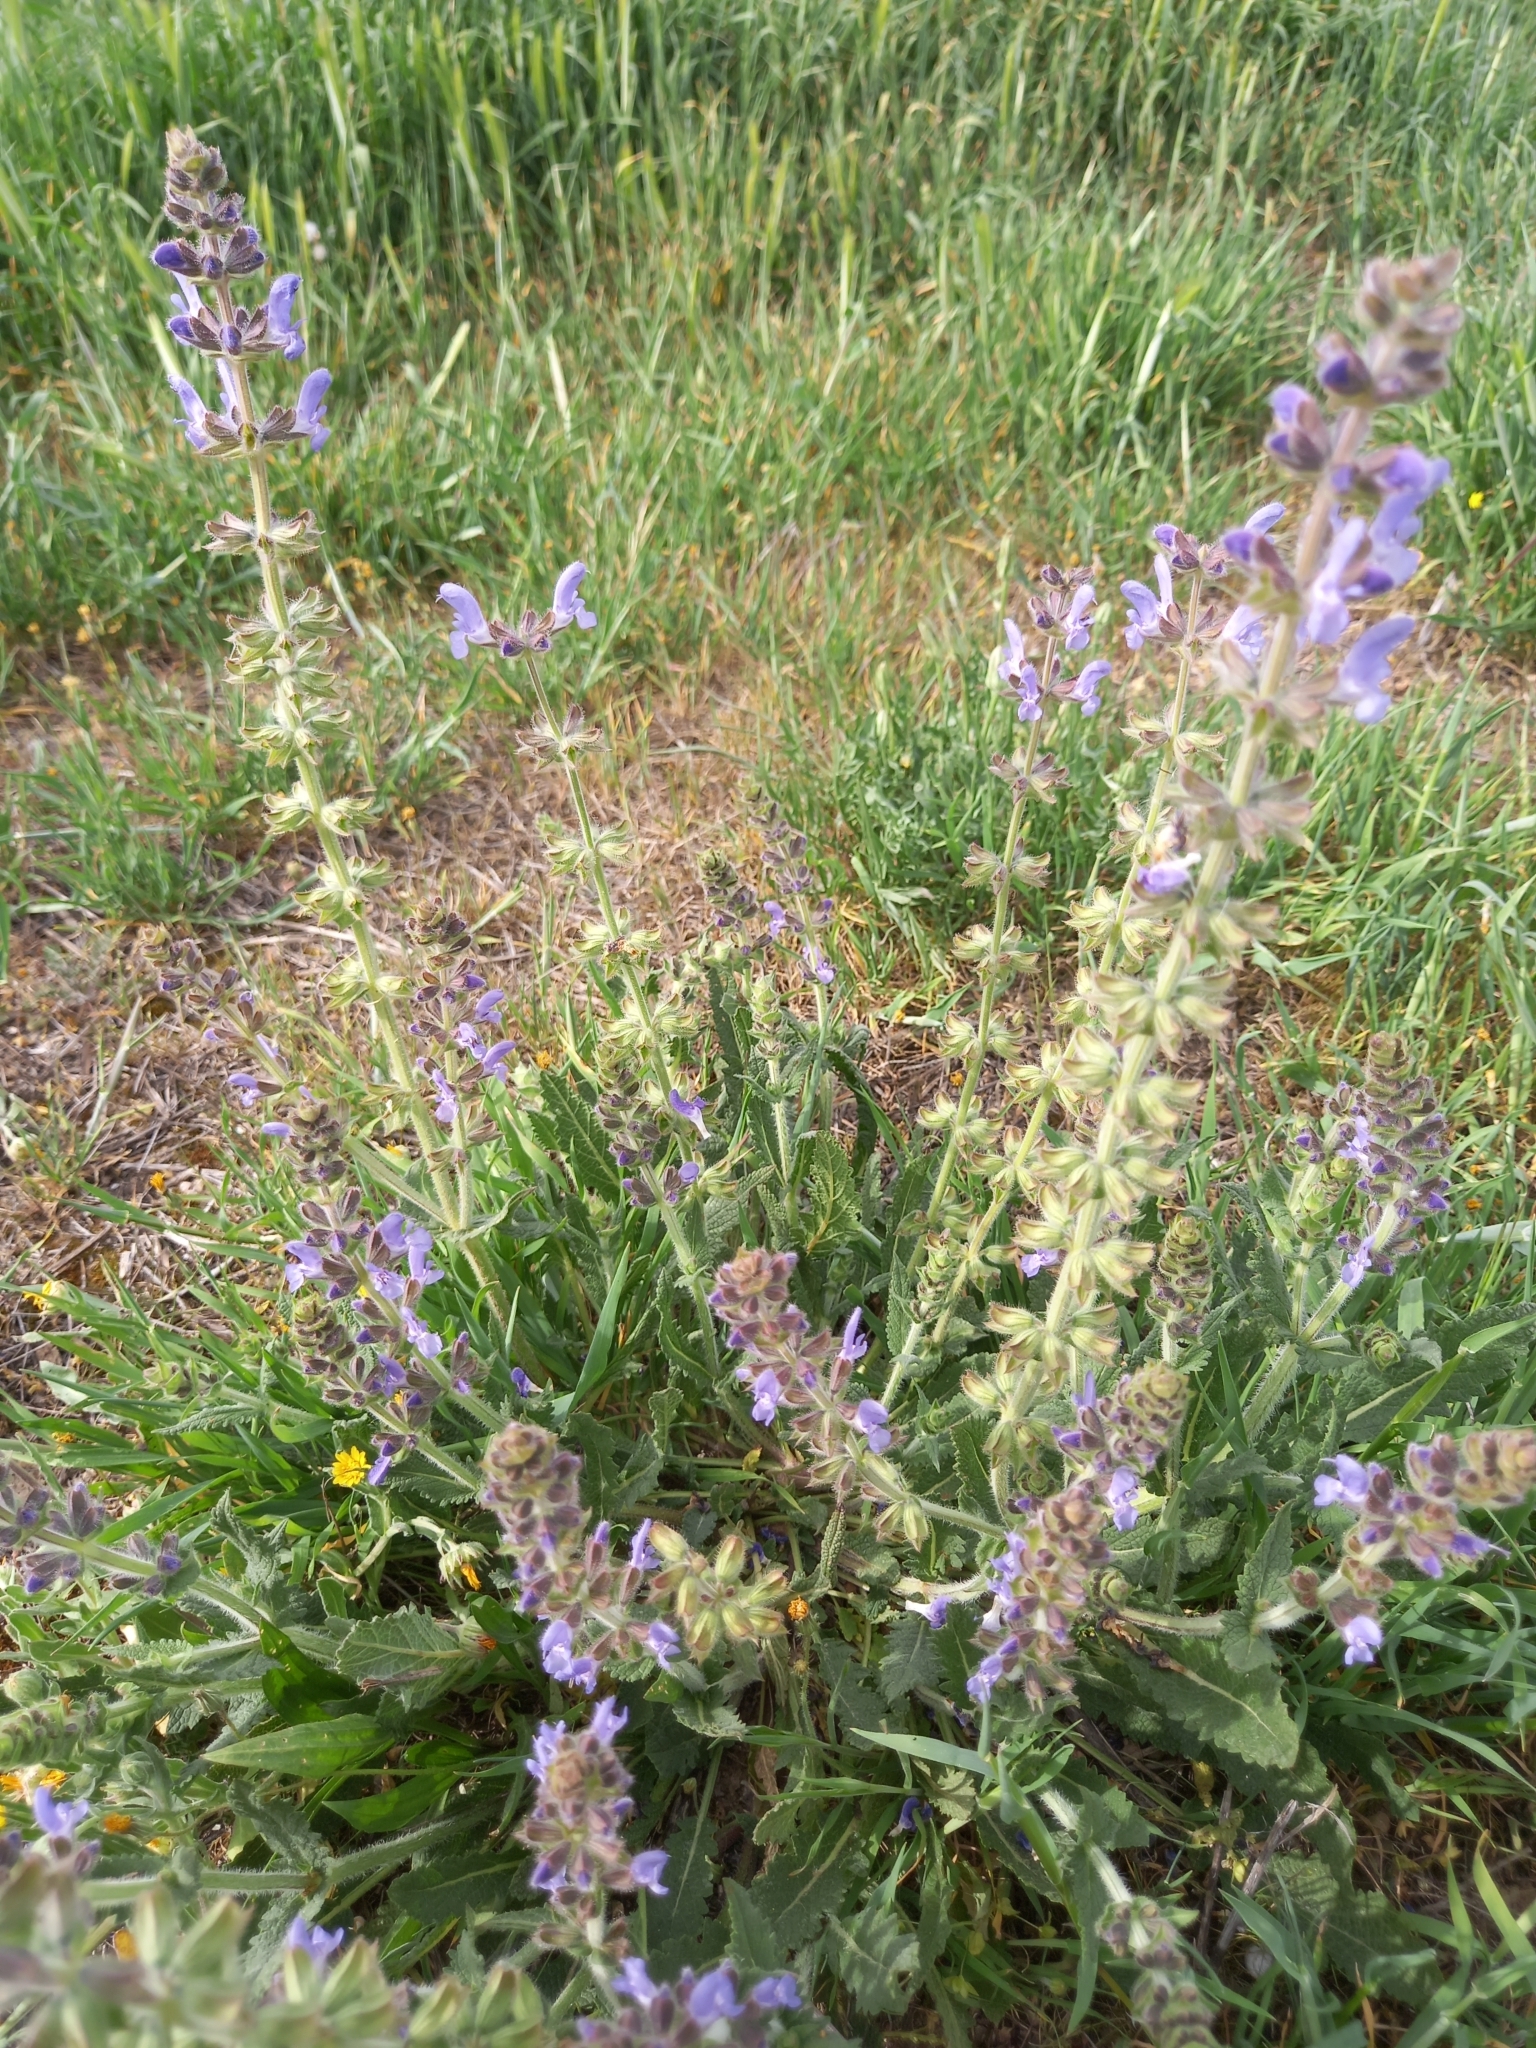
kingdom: Plantae
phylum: Tracheophyta
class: Magnoliopsida
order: Lamiales
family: Lamiaceae
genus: Salvia
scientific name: Salvia verbenaca
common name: Wild clary
